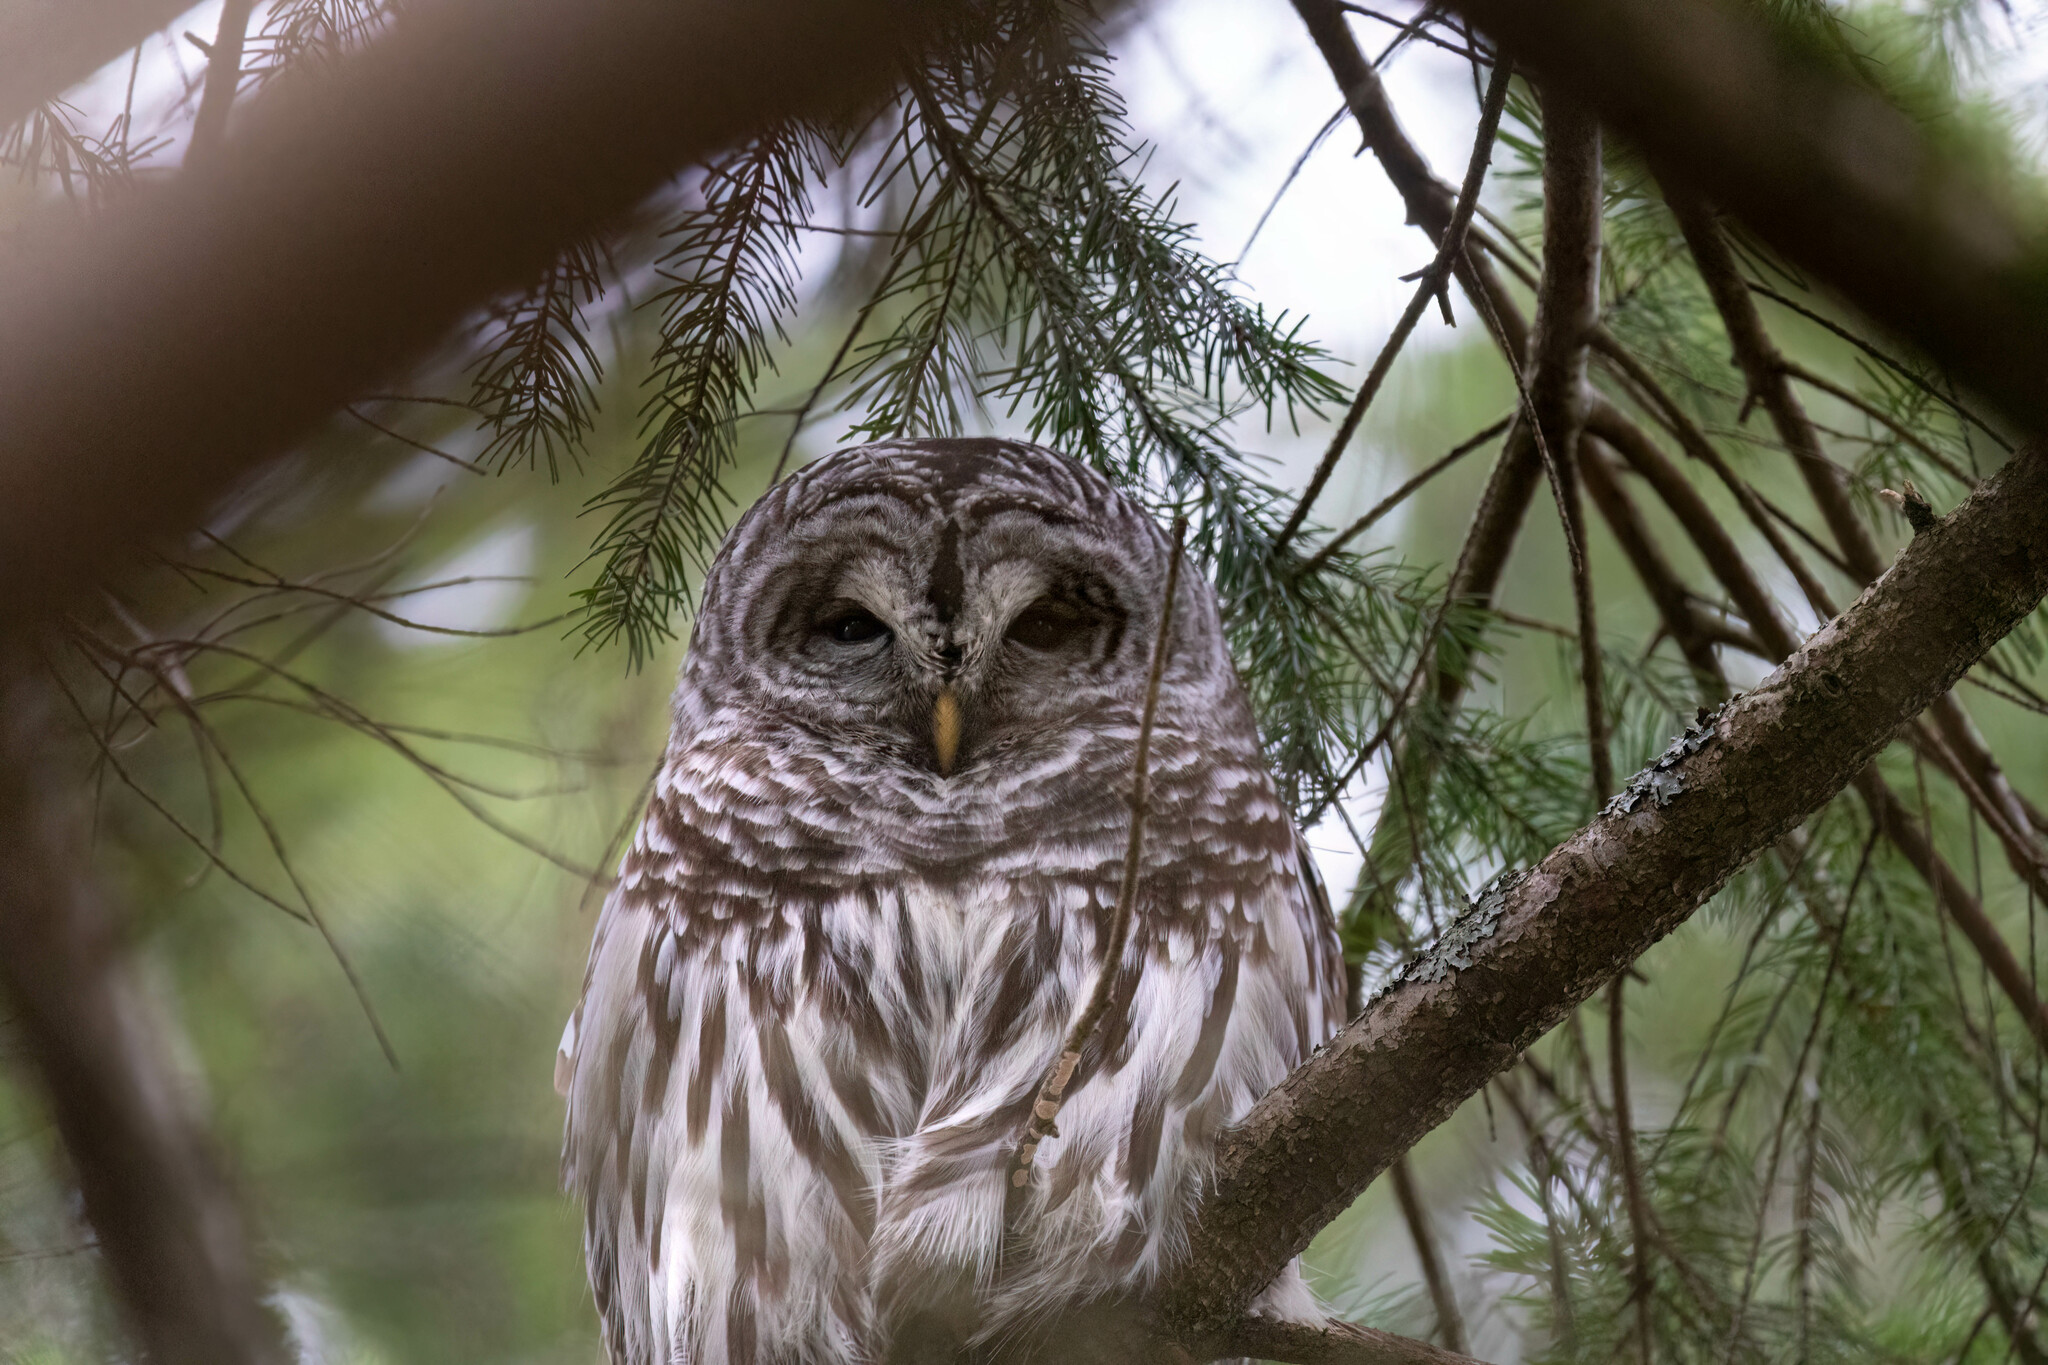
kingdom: Animalia
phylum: Chordata
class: Aves
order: Strigiformes
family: Strigidae
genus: Strix
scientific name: Strix varia
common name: Barred owl
